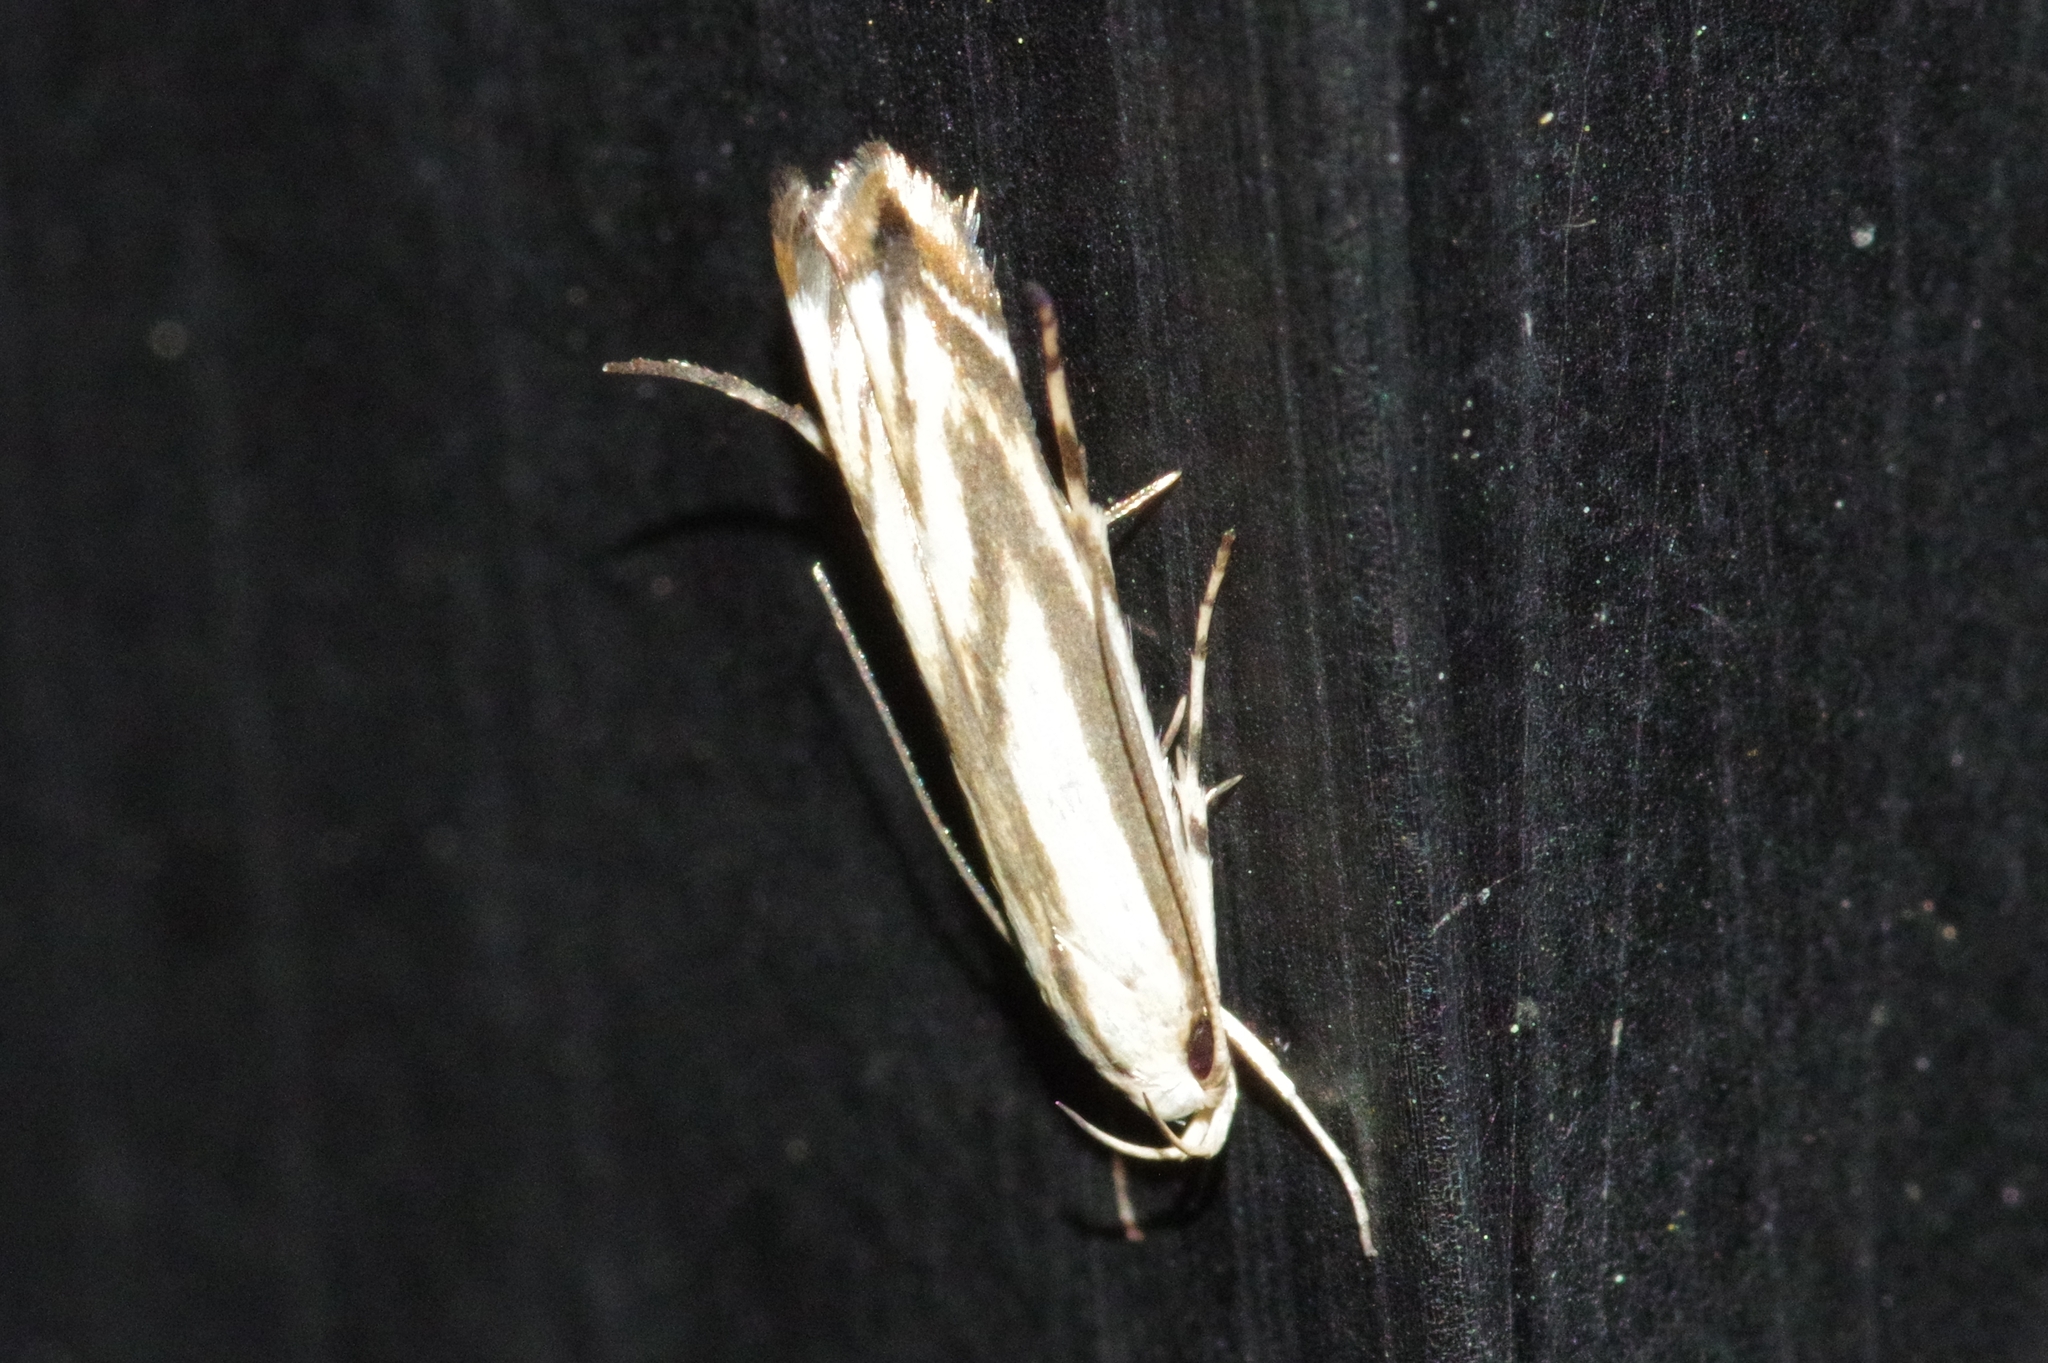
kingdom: Animalia
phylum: Arthropoda
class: Insecta
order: Lepidoptera
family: Gelechiidae
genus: Polyhymno
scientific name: Polyhymno pontifera
